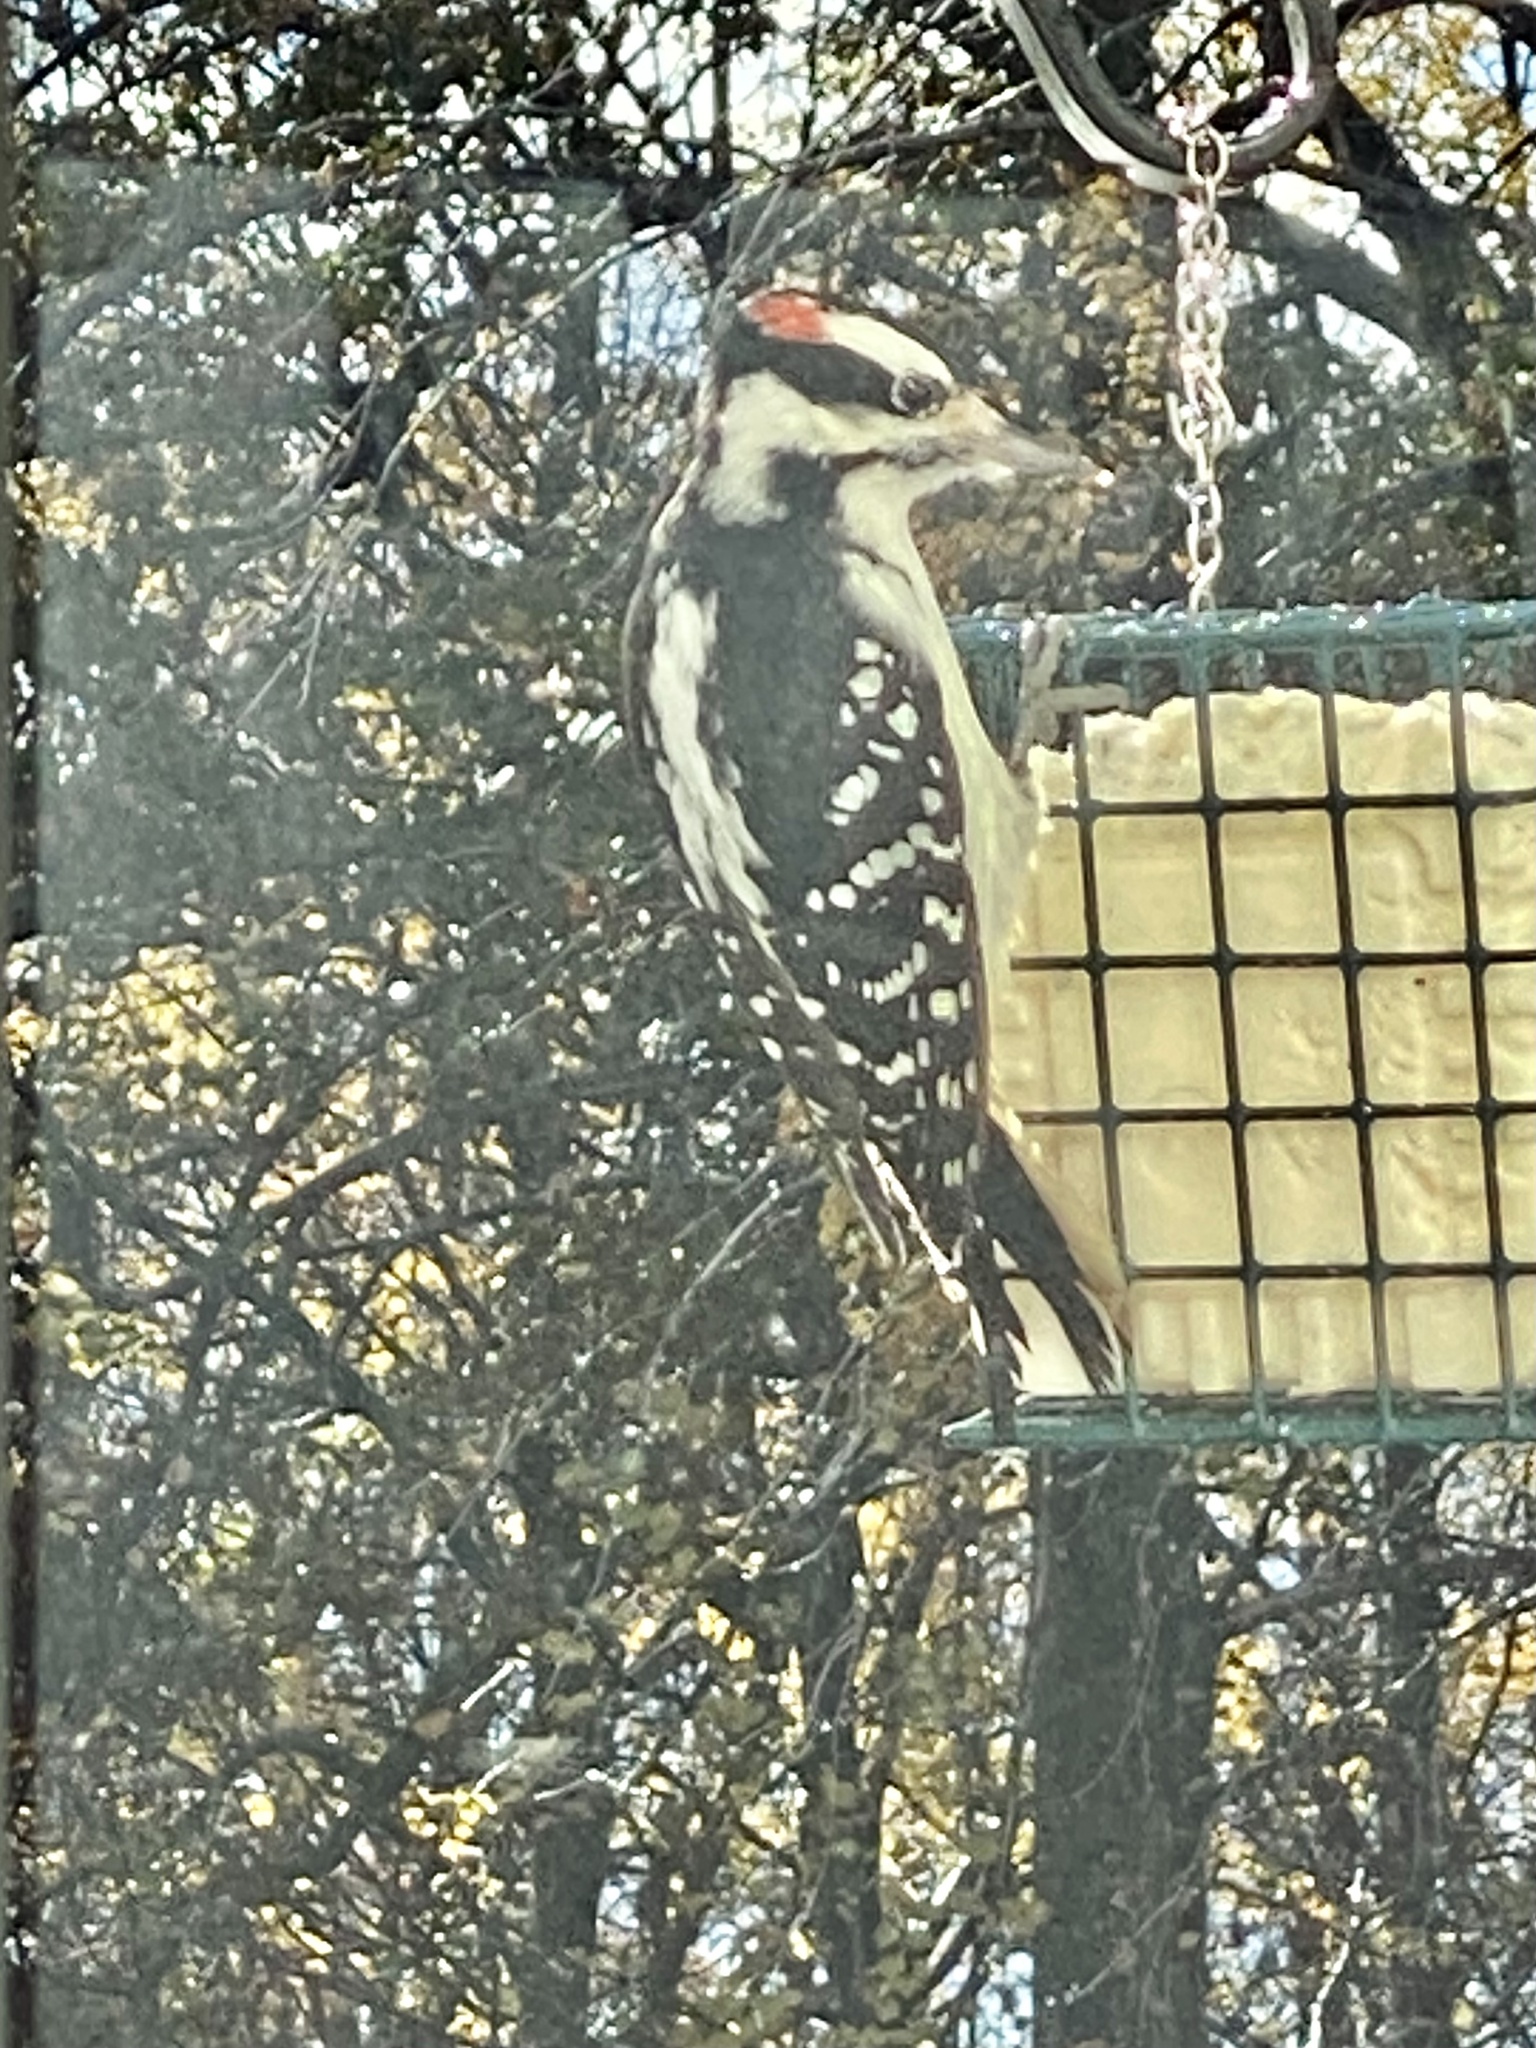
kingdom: Animalia
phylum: Chordata
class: Aves
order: Piciformes
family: Picidae
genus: Leuconotopicus
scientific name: Leuconotopicus villosus
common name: Hairy woodpecker
